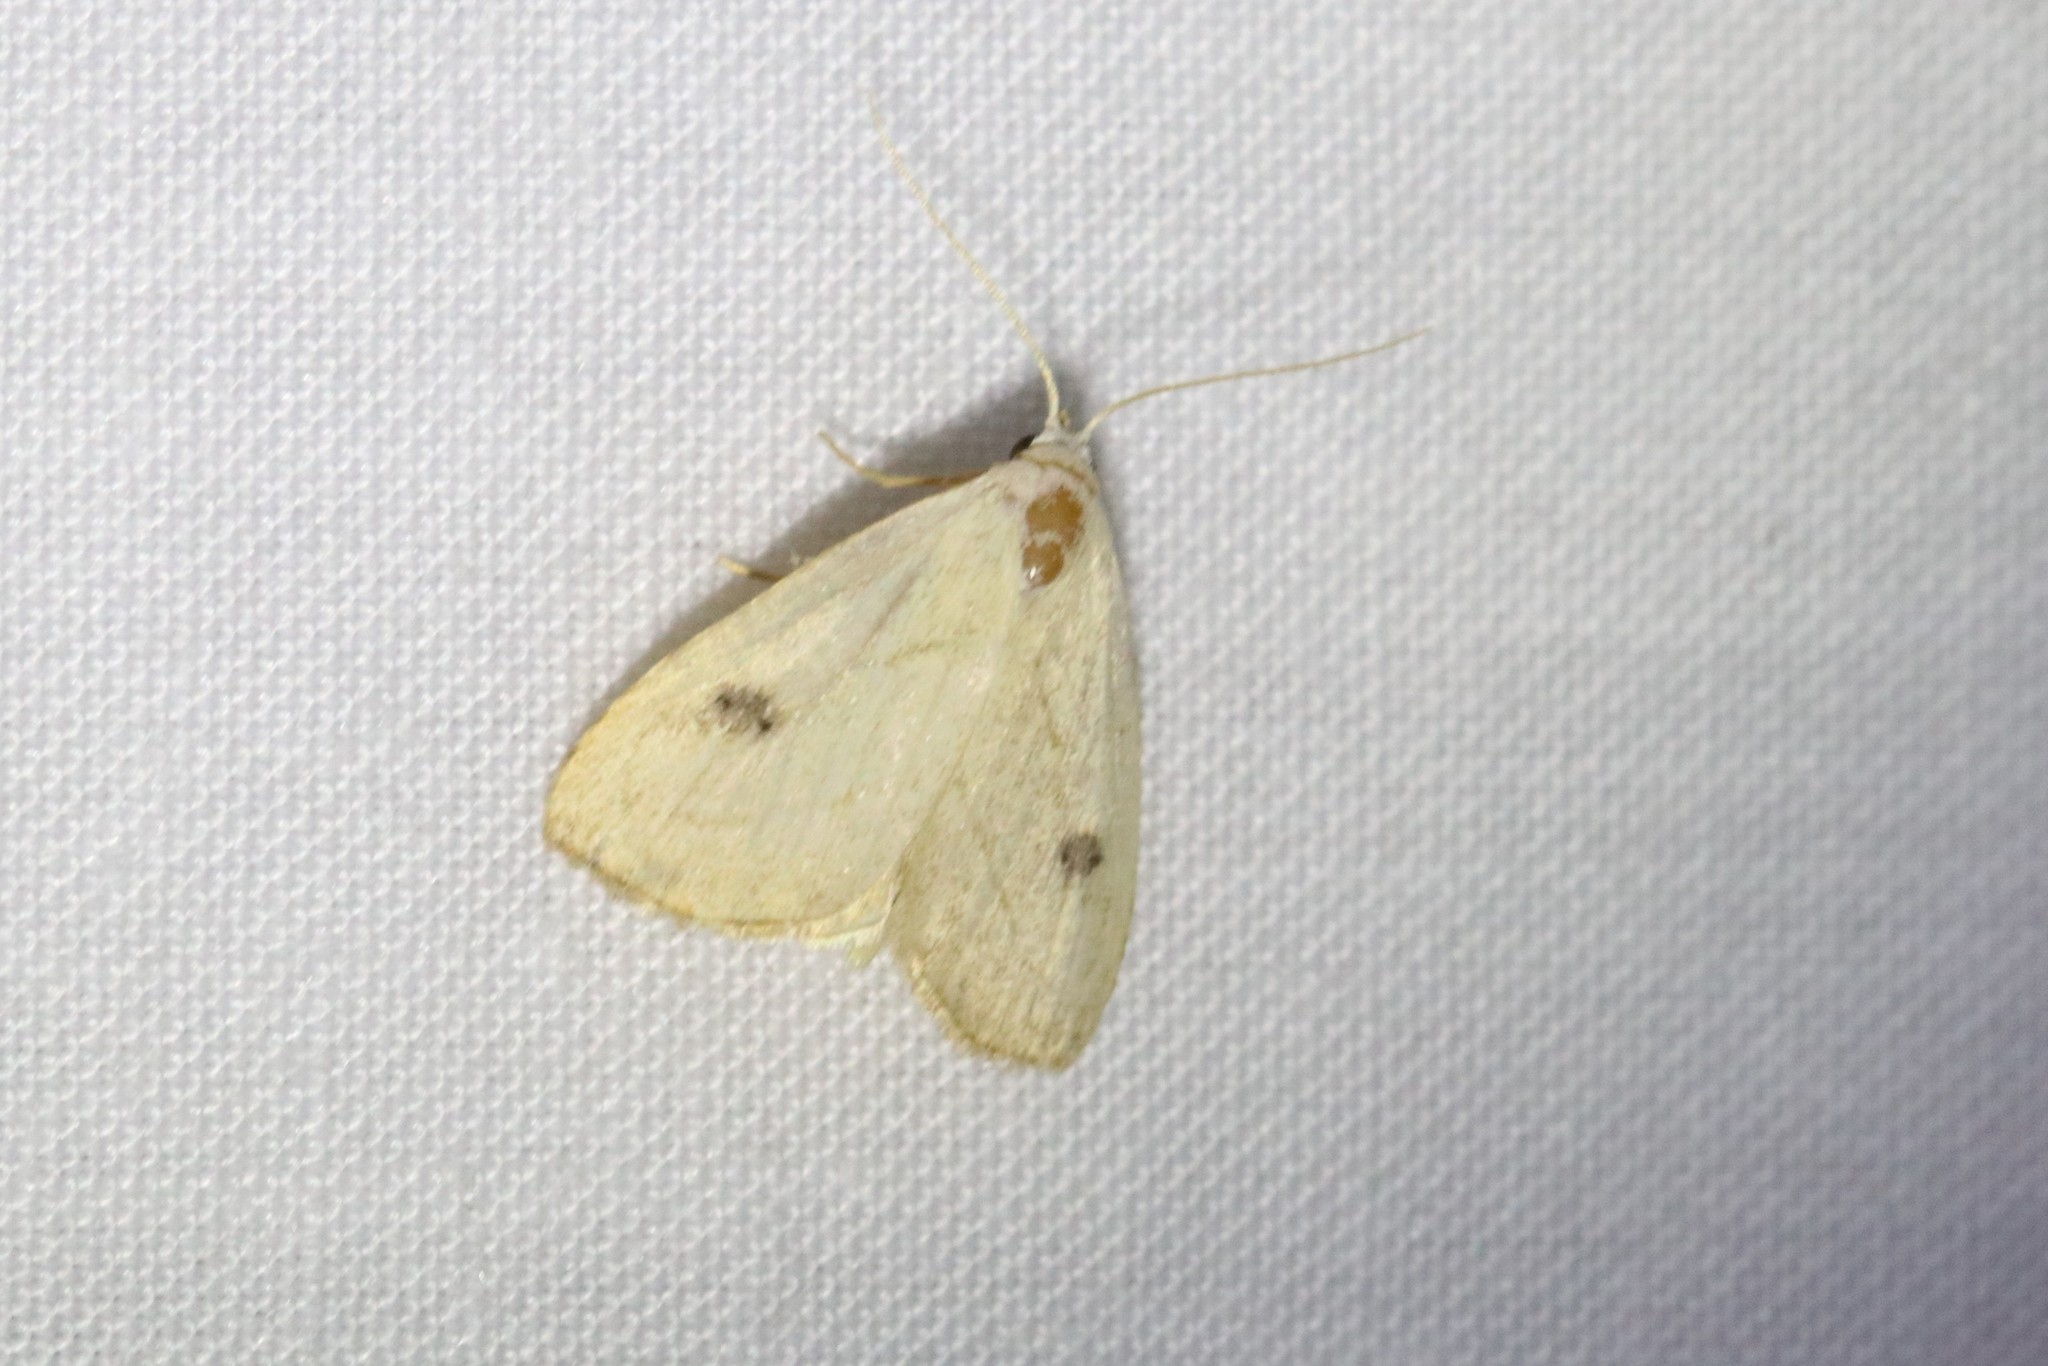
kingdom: Animalia
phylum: Arthropoda
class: Insecta
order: Lepidoptera
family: Erebidae
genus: Rivula
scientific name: Rivula propinqualis
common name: Spotted grass moth
